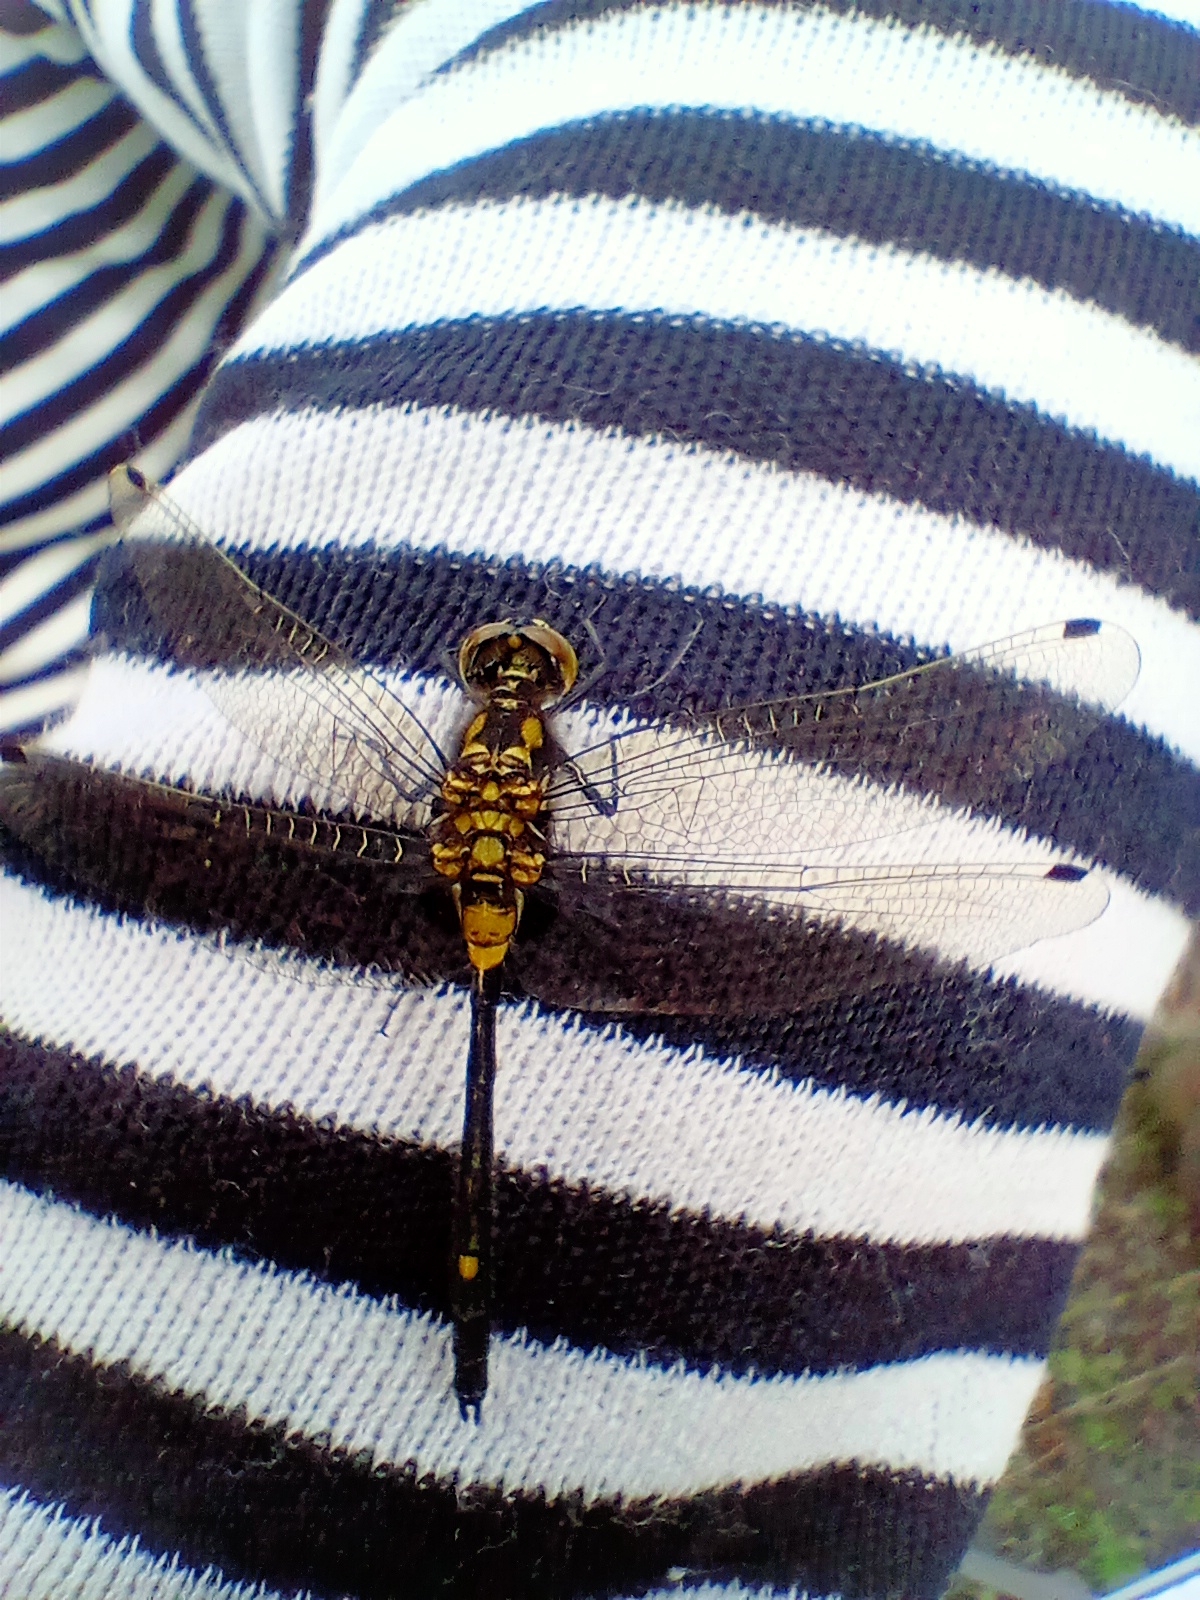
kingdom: Animalia
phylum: Arthropoda
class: Insecta
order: Odonata
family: Libellulidae
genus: Leucorrhinia
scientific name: Leucorrhinia orientalis
